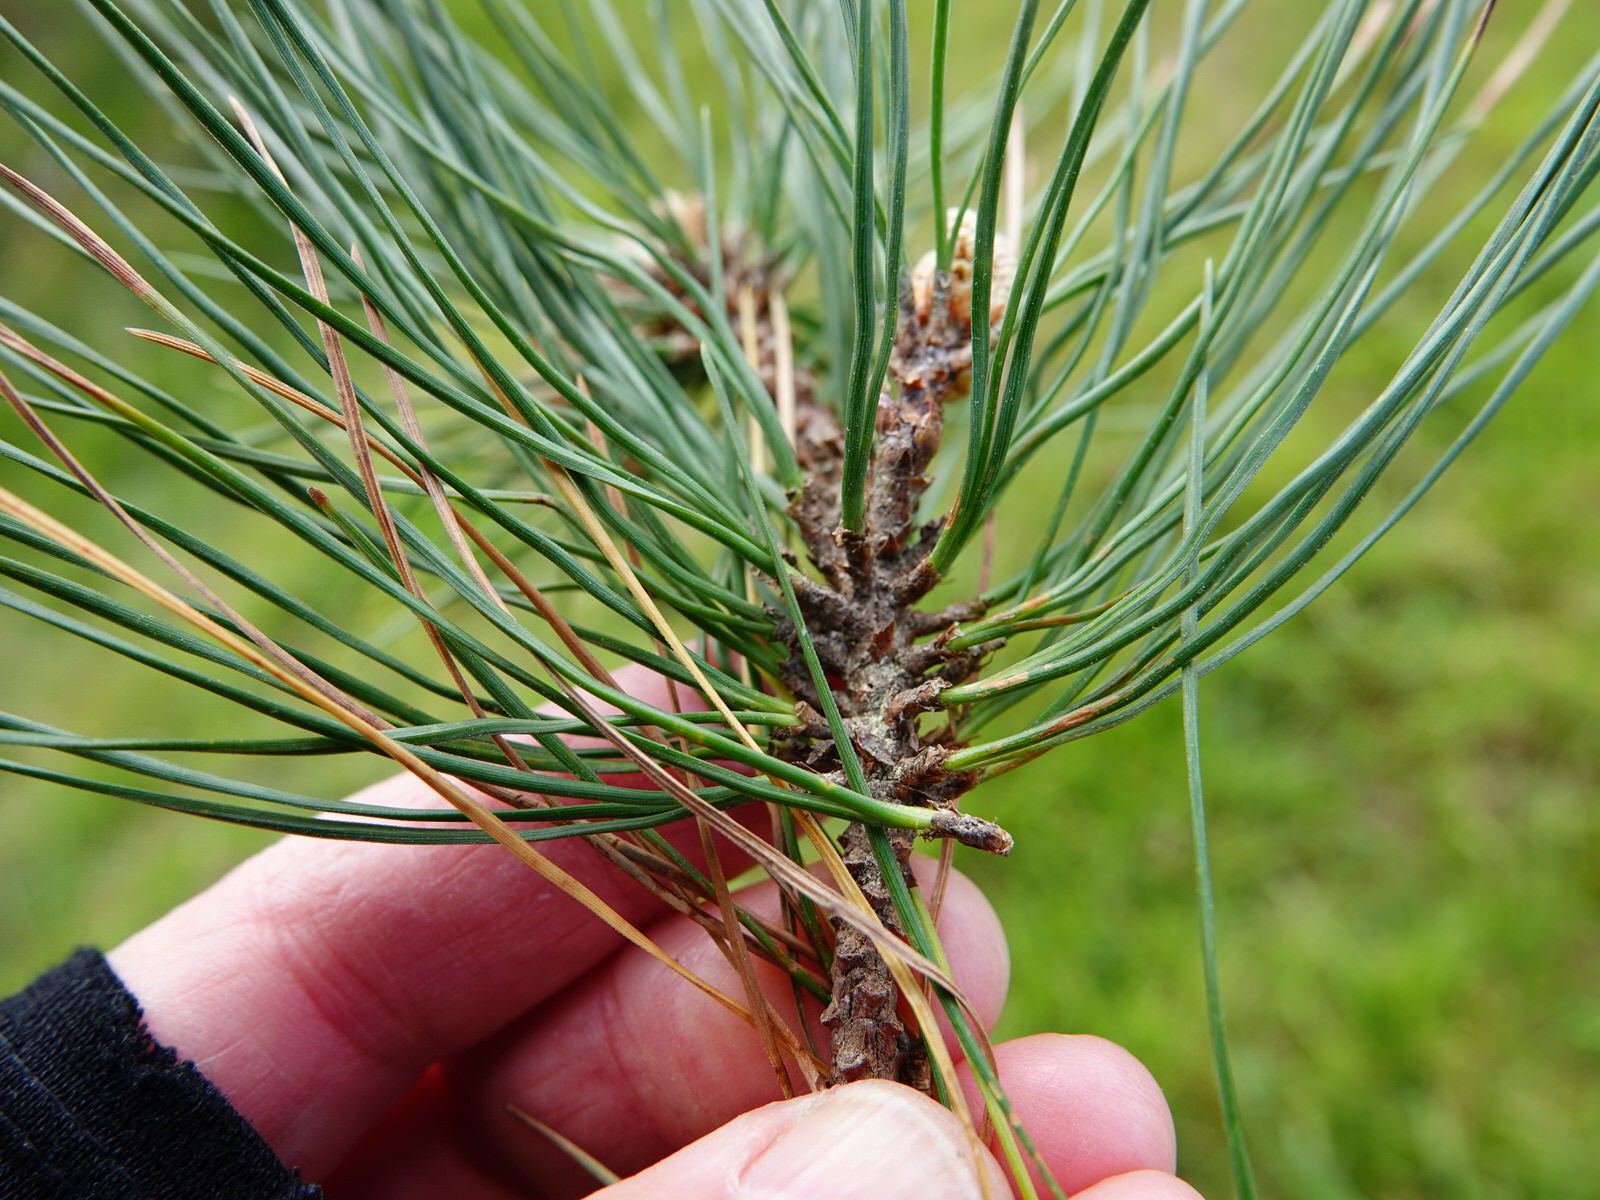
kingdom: Plantae
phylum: Tracheophyta
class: Pinopsida
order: Pinales
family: Pinaceae
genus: Pinus
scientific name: Pinus radiata
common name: Monterey pine
